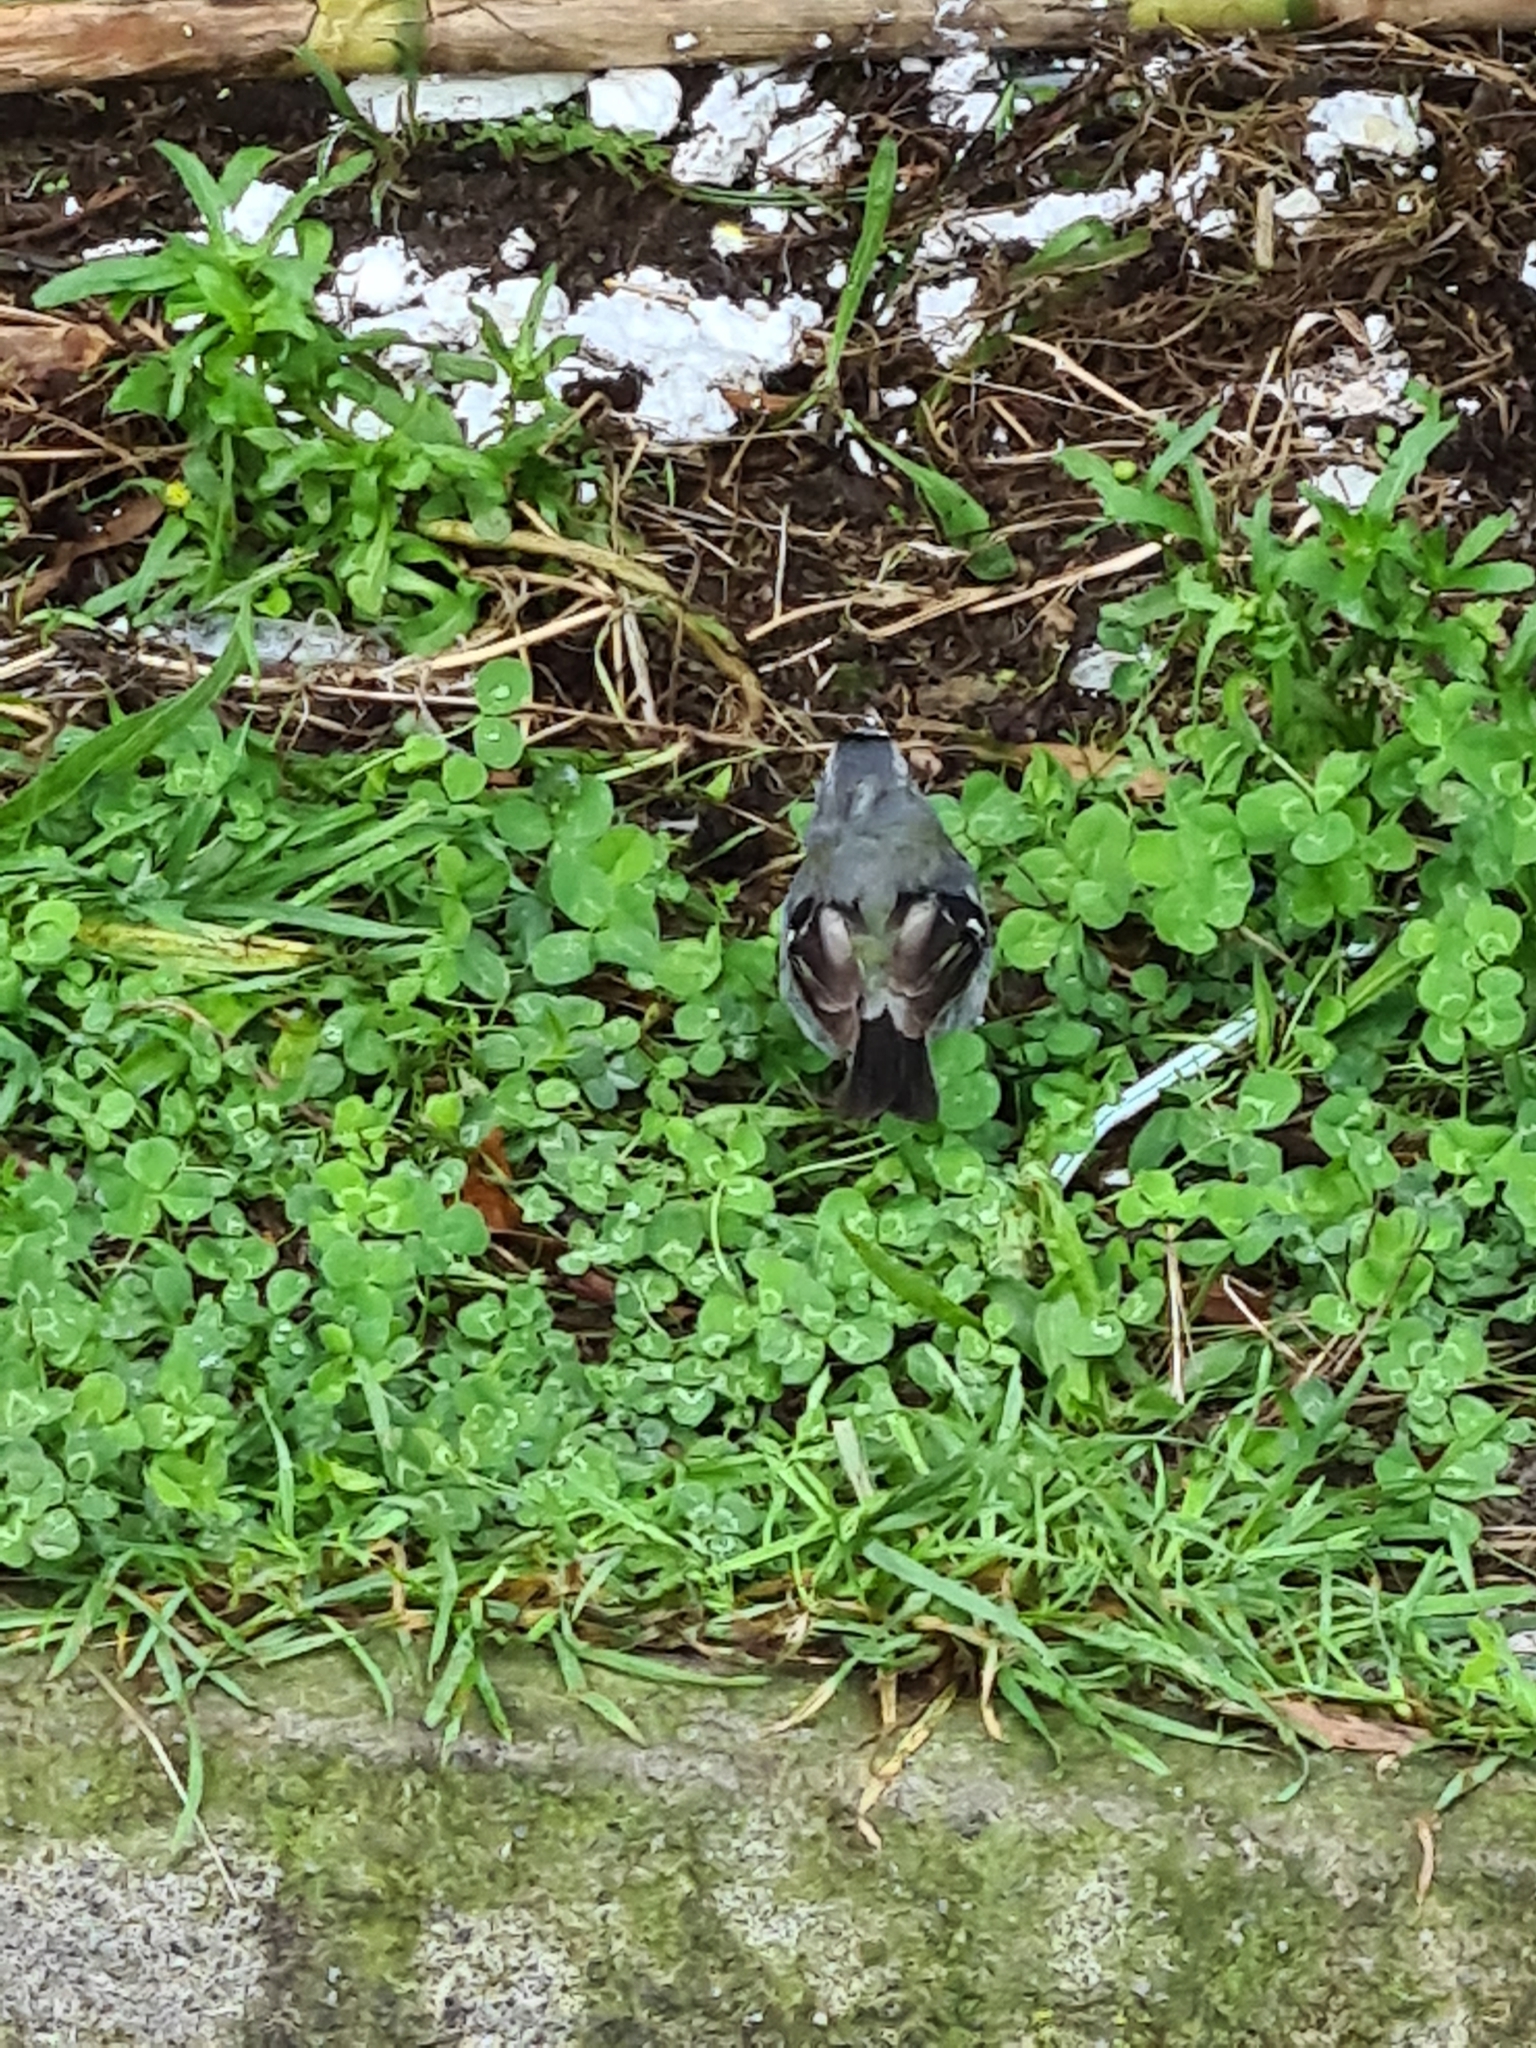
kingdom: Animalia
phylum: Chordata
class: Aves
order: Passeriformes
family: Fringillidae
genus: Fringilla
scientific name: Fringilla moreletti
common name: Azores chaffinch
